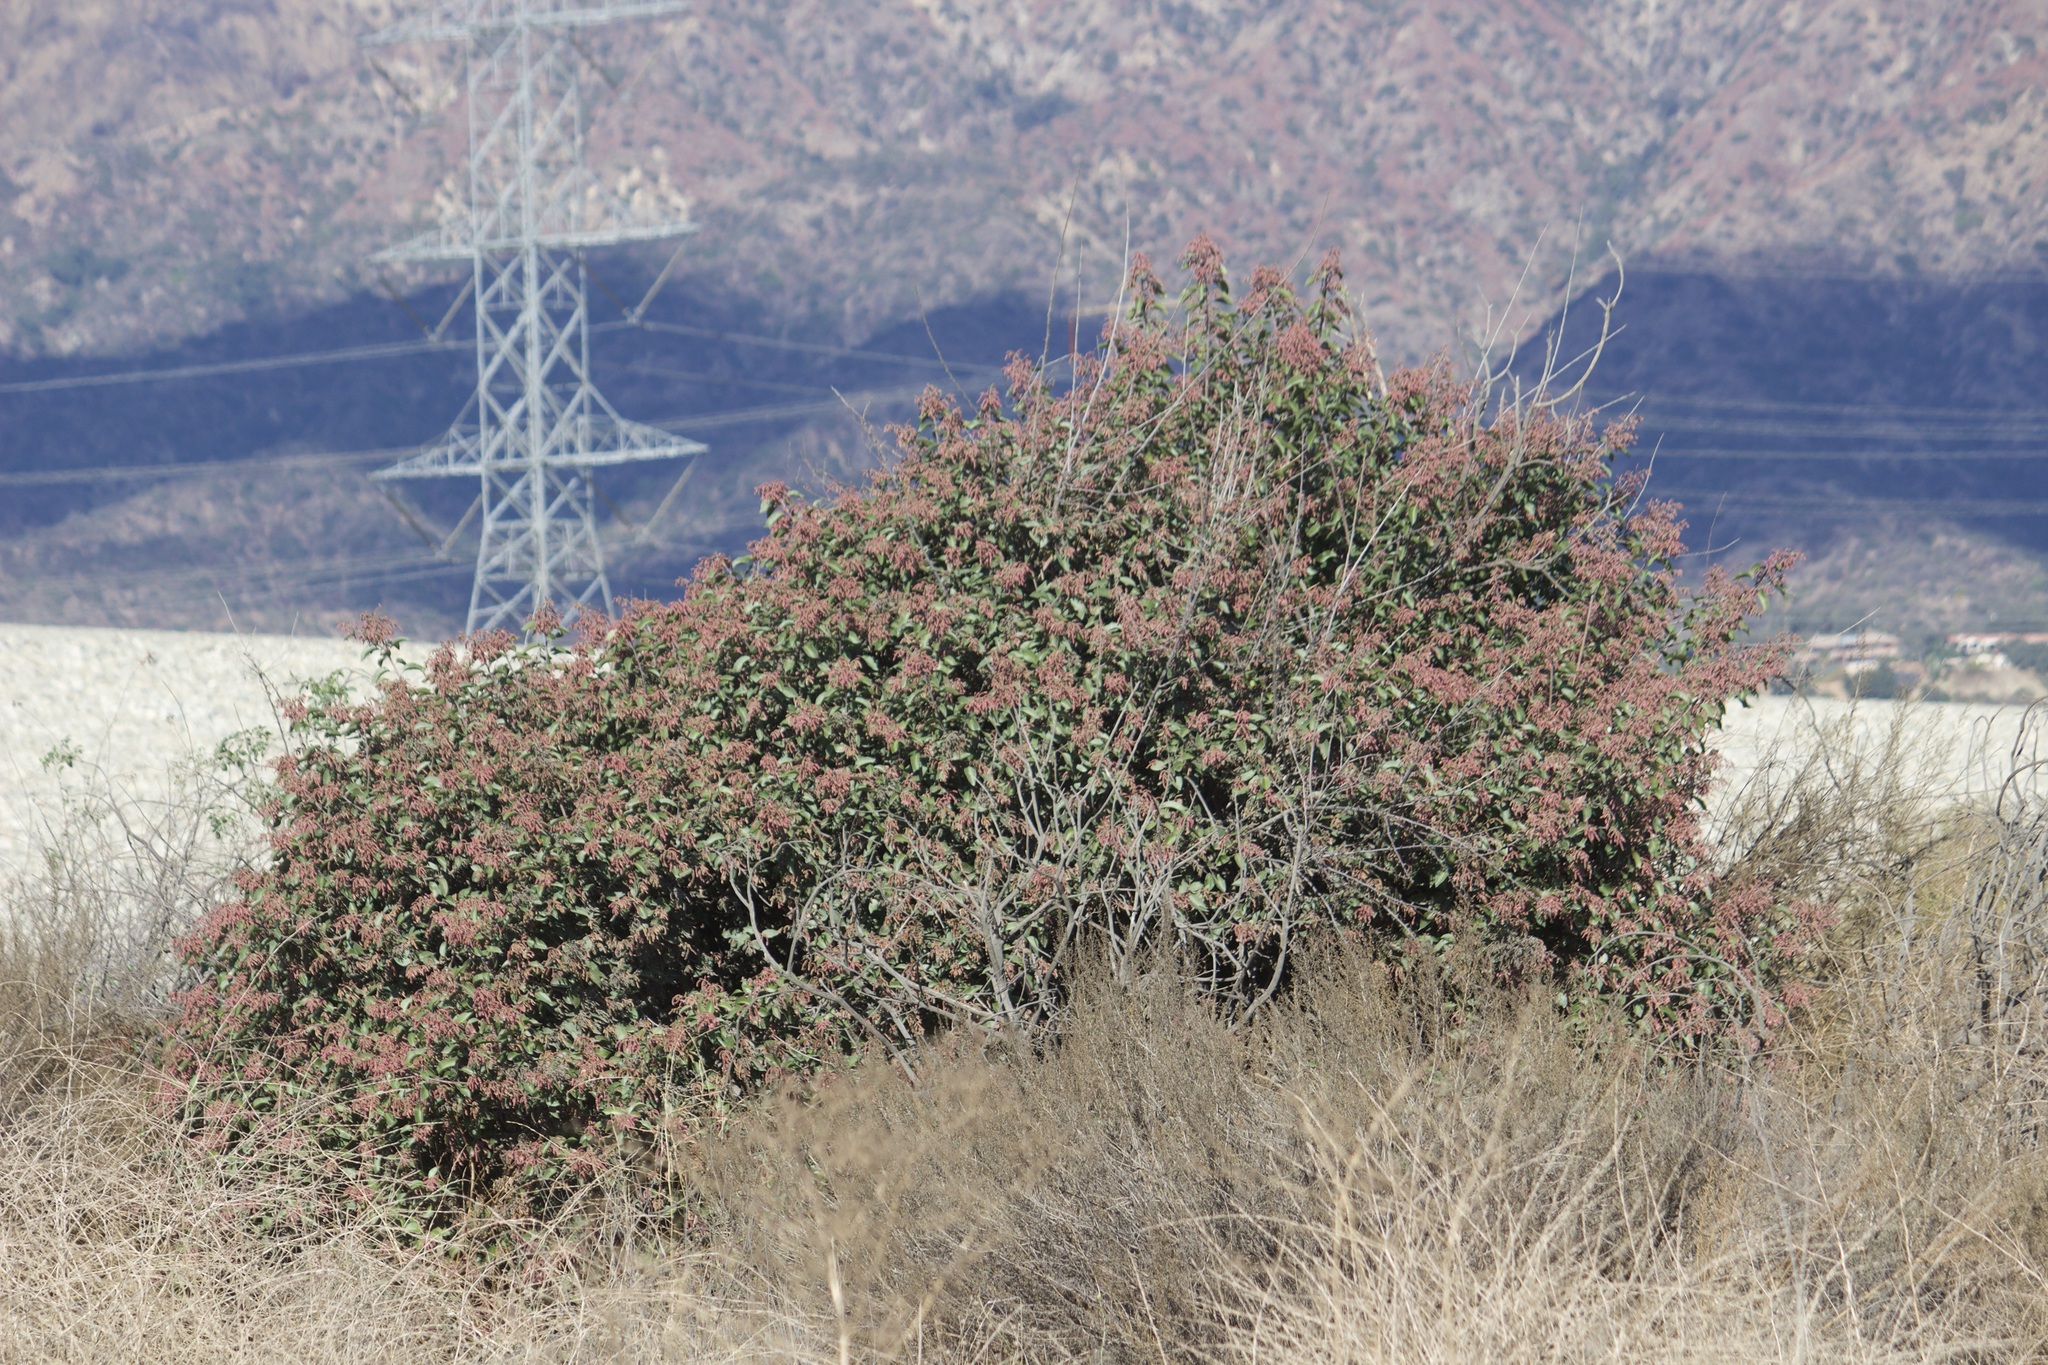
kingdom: Plantae
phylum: Tracheophyta
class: Magnoliopsida
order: Sapindales
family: Anacardiaceae
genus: Rhus
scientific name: Rhus ovata
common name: Sugar sumac
